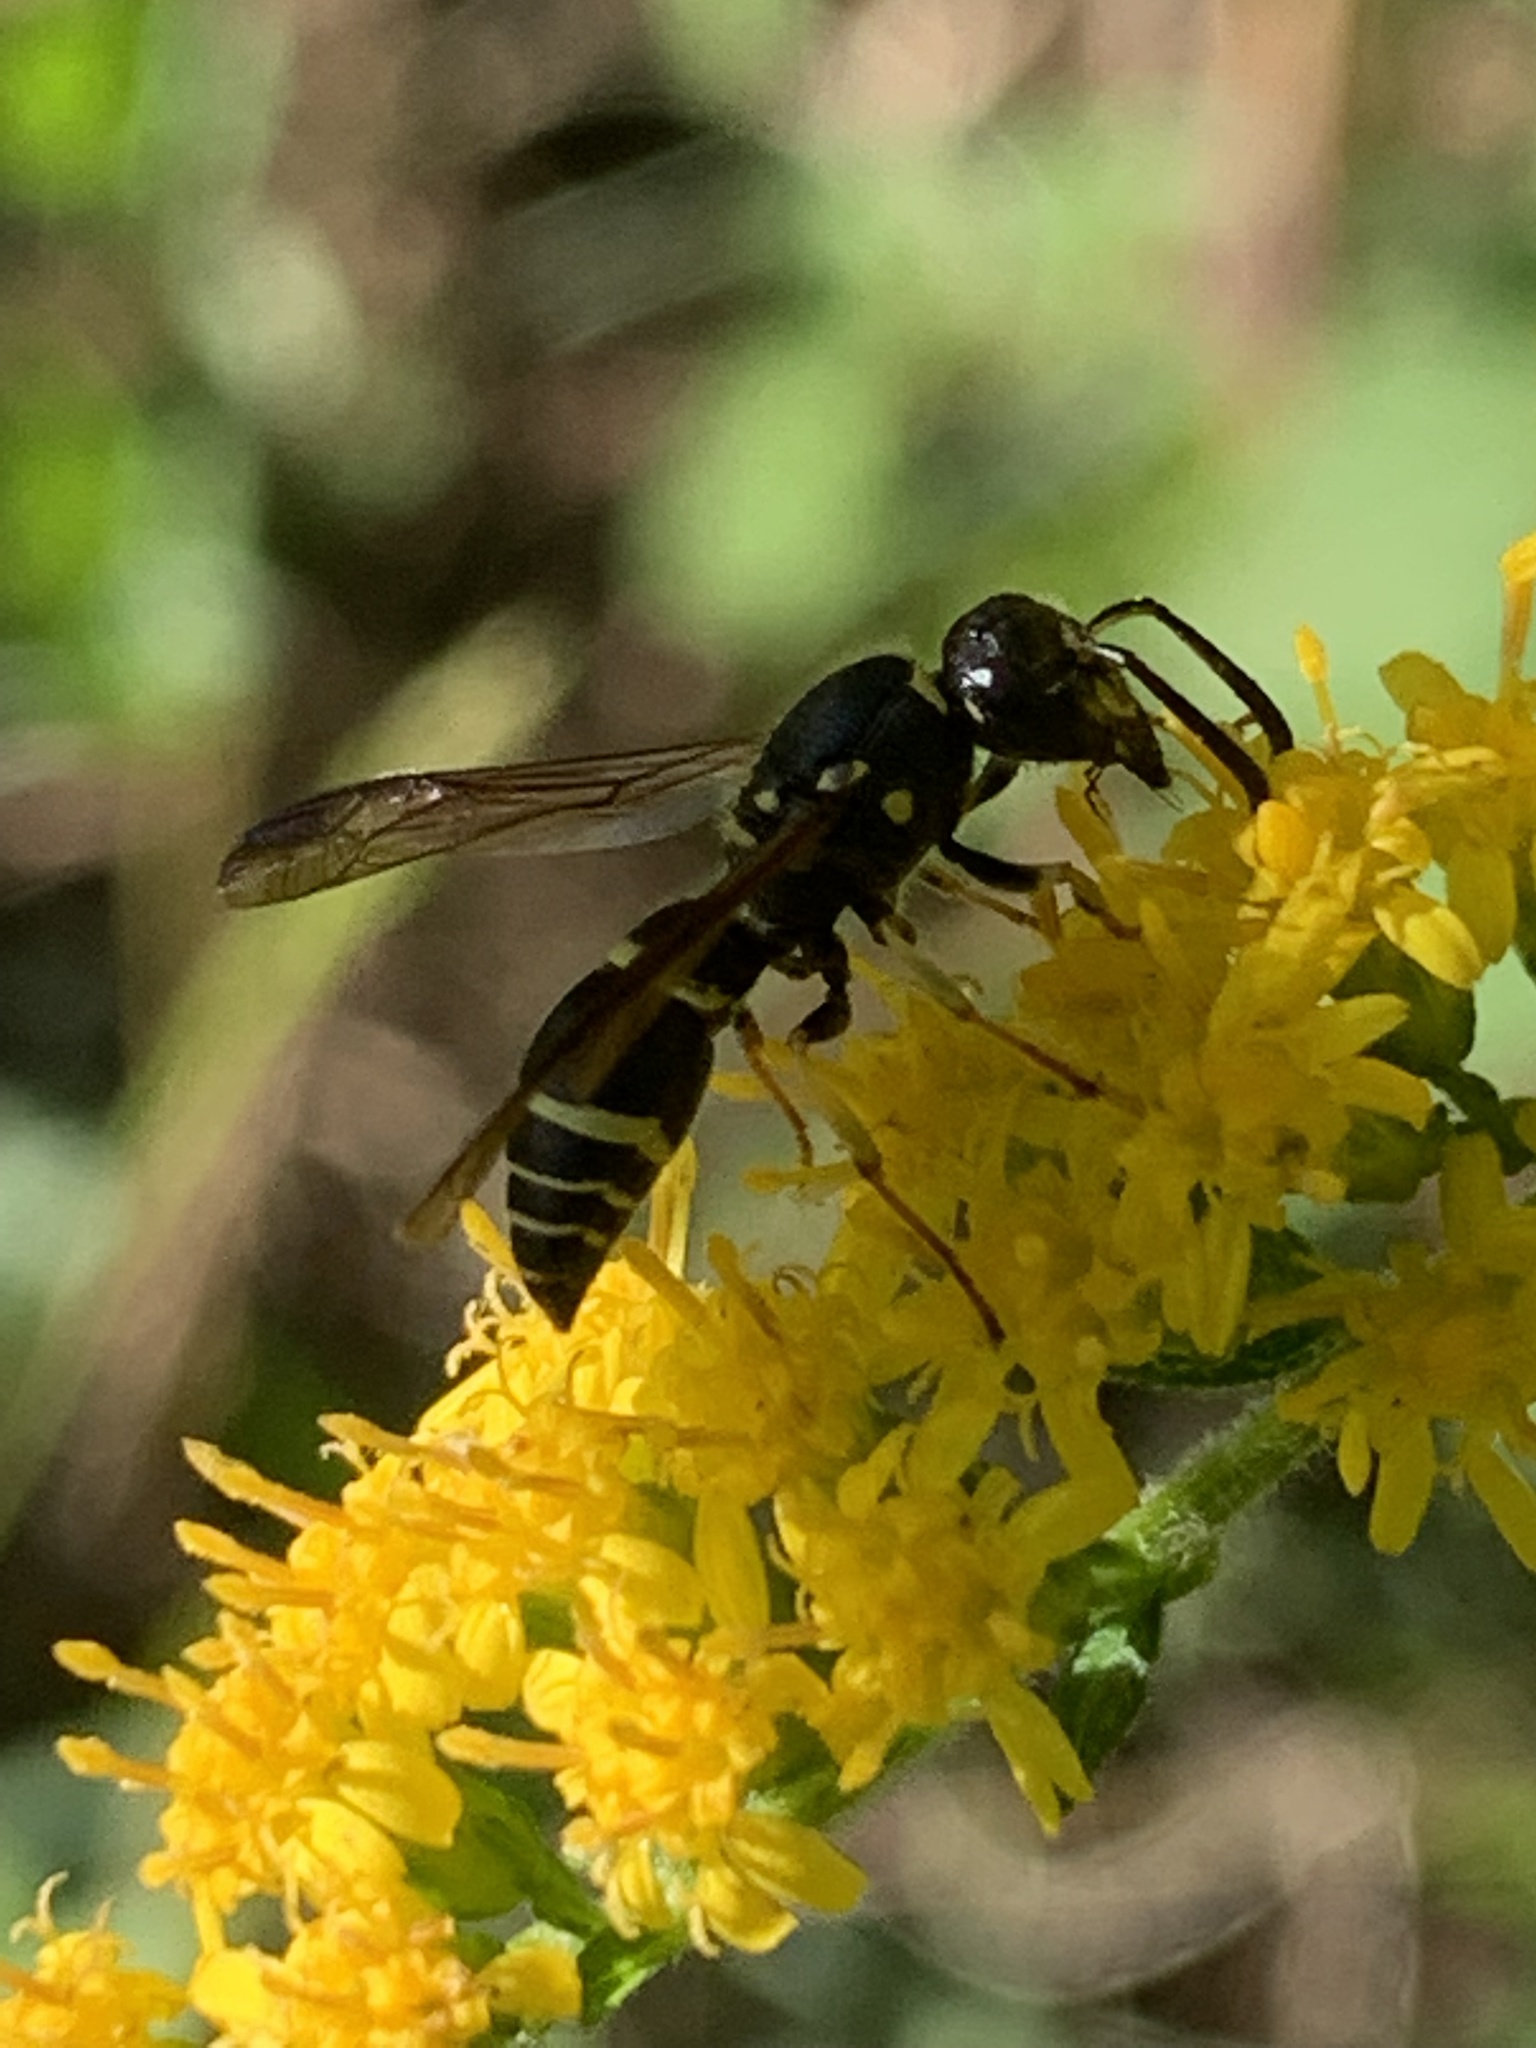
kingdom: Animalia
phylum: Arthropoda
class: Insecta
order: Hymenoptera
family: Vespidae
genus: Ancistrocerus
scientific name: Ancistrocerus adiabatus
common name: Bramble mason wasp
